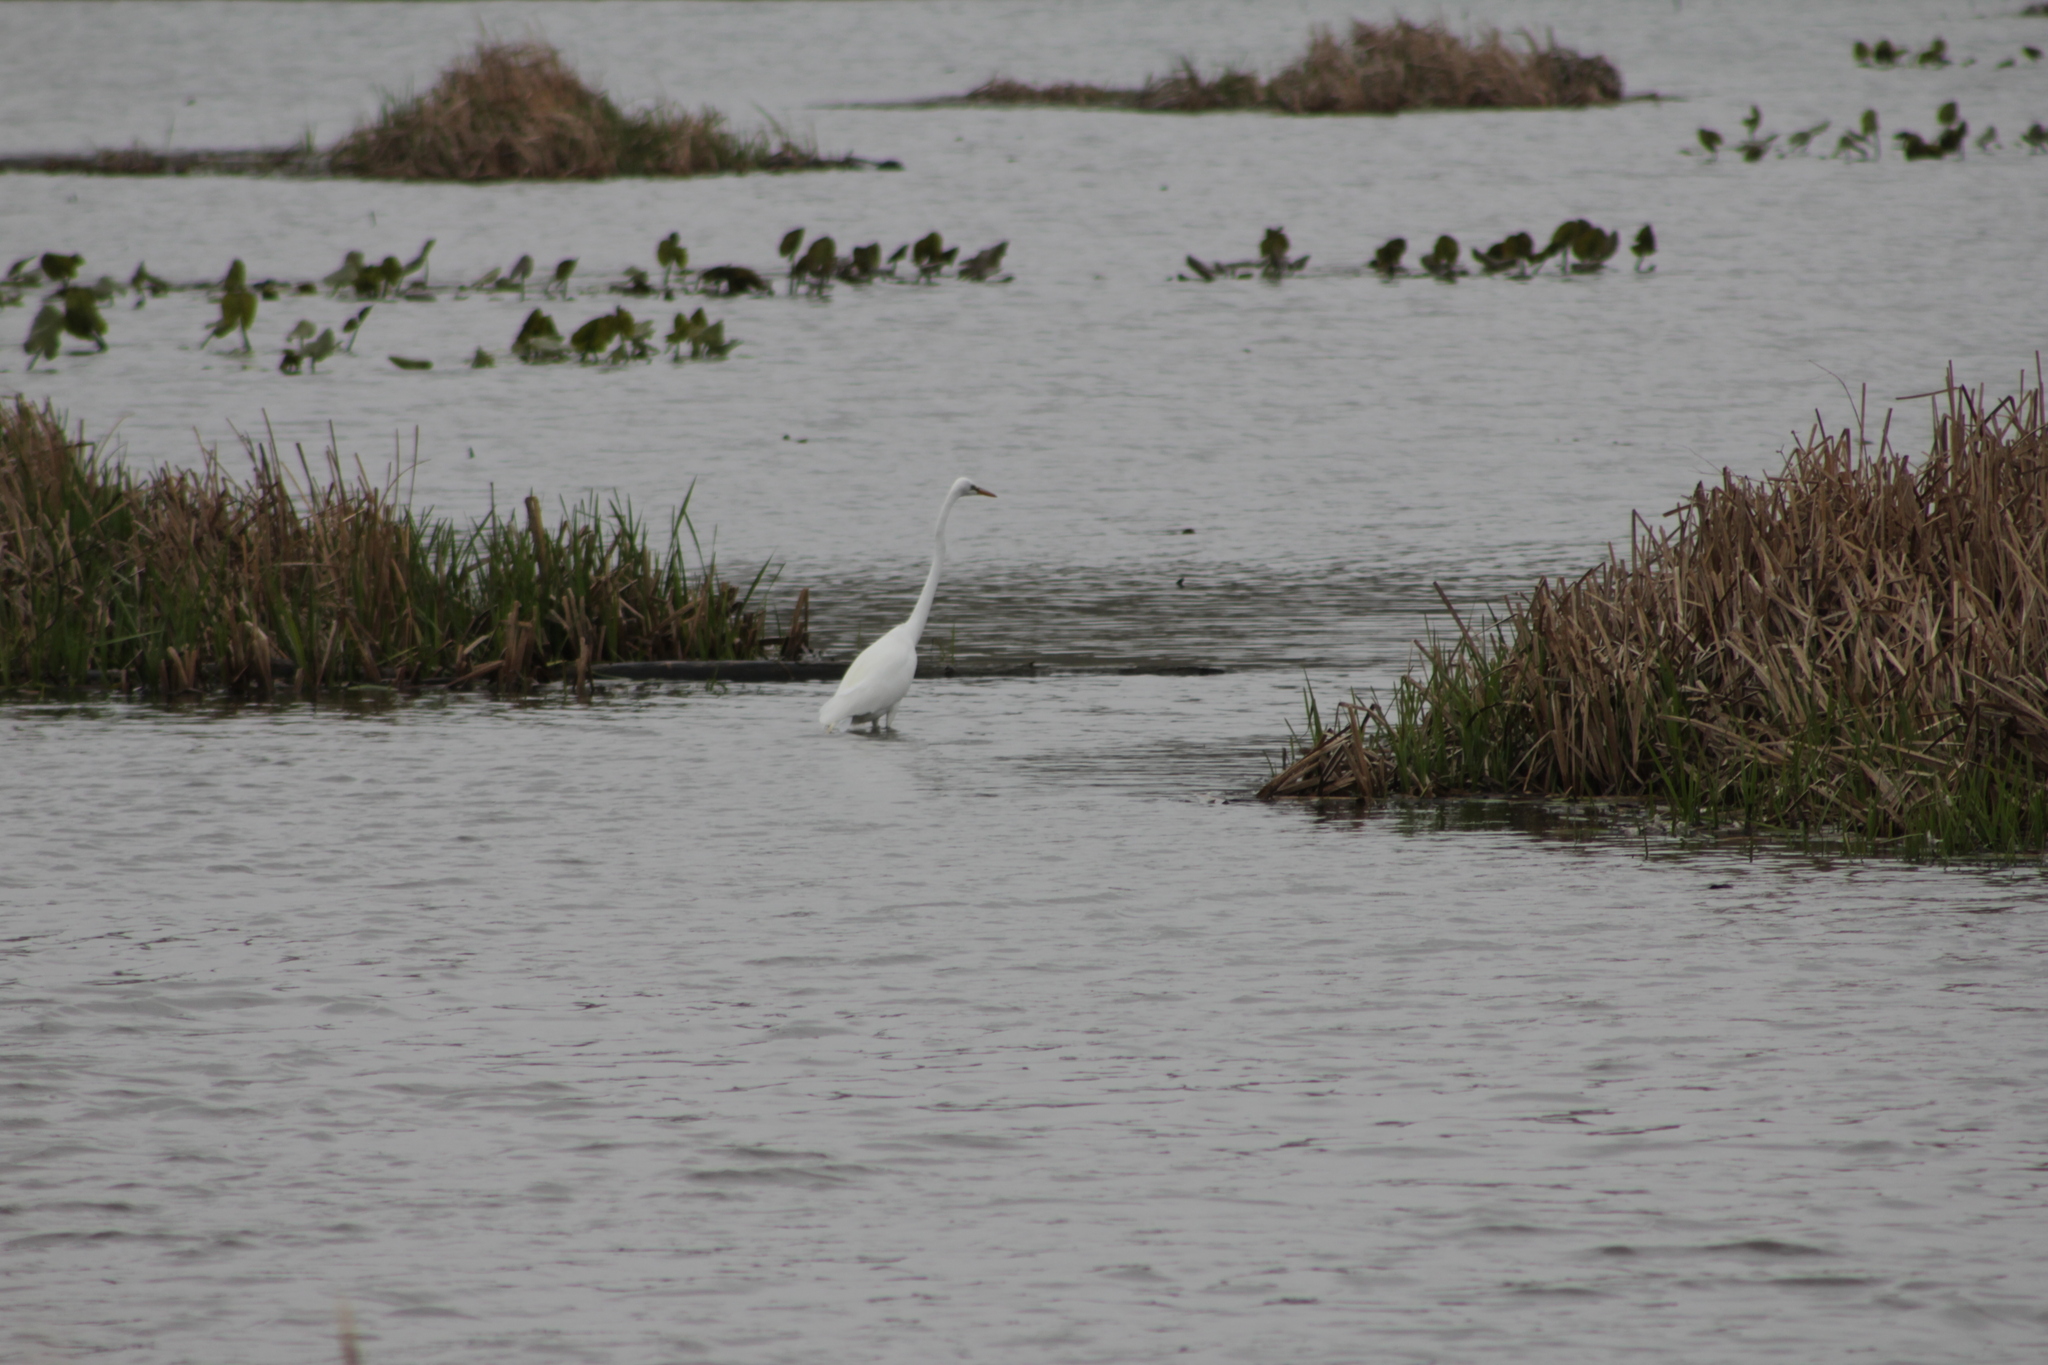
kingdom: Animalia
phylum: Chordata
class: Aves
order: Pelecaniformes
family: Ardeidae
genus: Ardea
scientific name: Ardea alba
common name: Great egret
